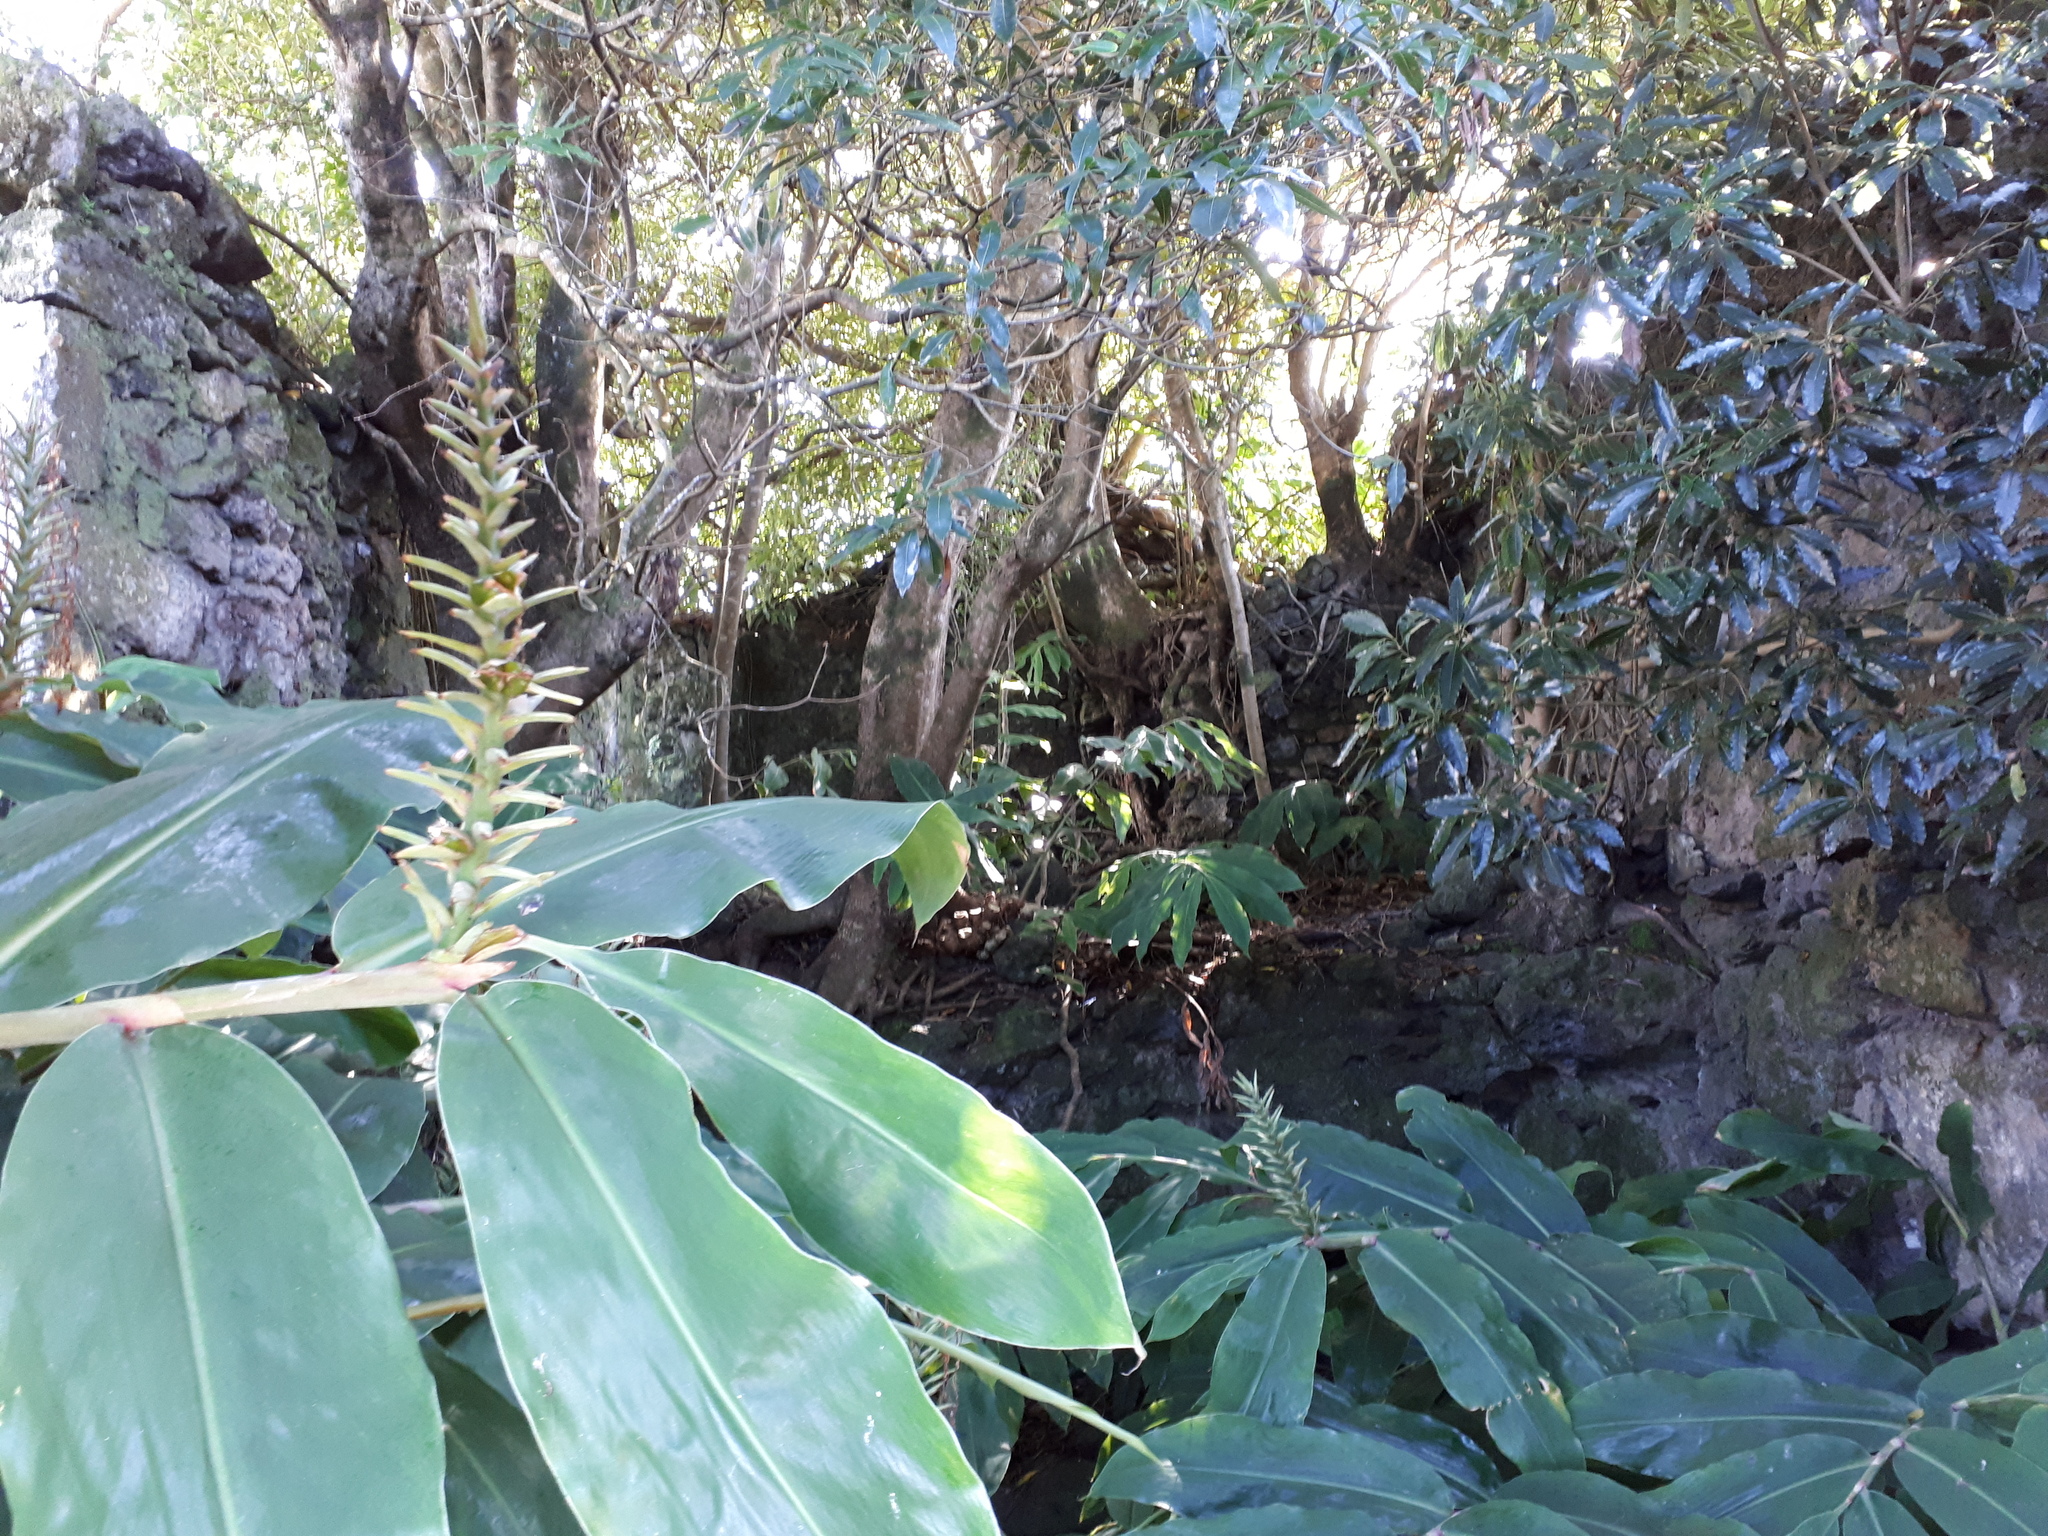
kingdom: Plantae
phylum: Tracheophyta
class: Liliopsida
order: Zingiberales
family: Zingiberaceae
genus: Hedychium
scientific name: Hedychium gardnerianum
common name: Himalayan ginger
